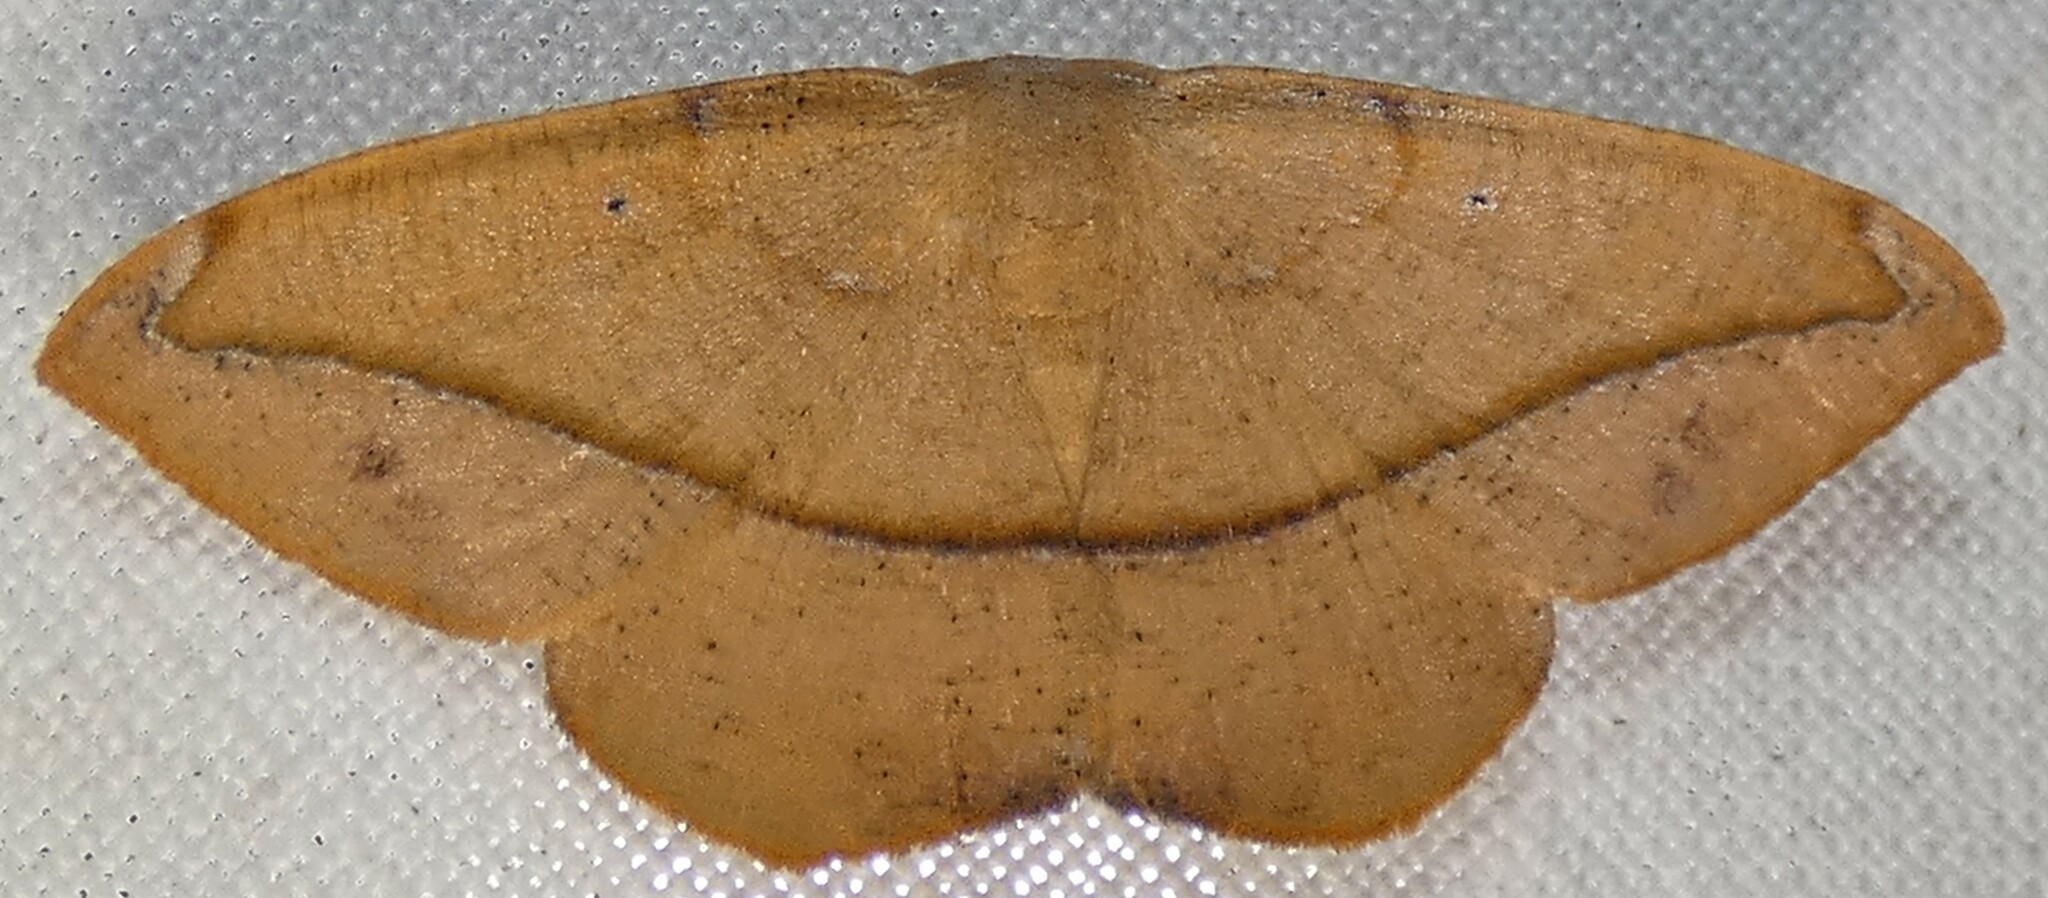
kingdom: Animalia
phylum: Arthropoda
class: Insecta
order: Lepidoptera
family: Geometridae
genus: Patalene
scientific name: Patalene olyzonaria
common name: Juniper geometer moth
